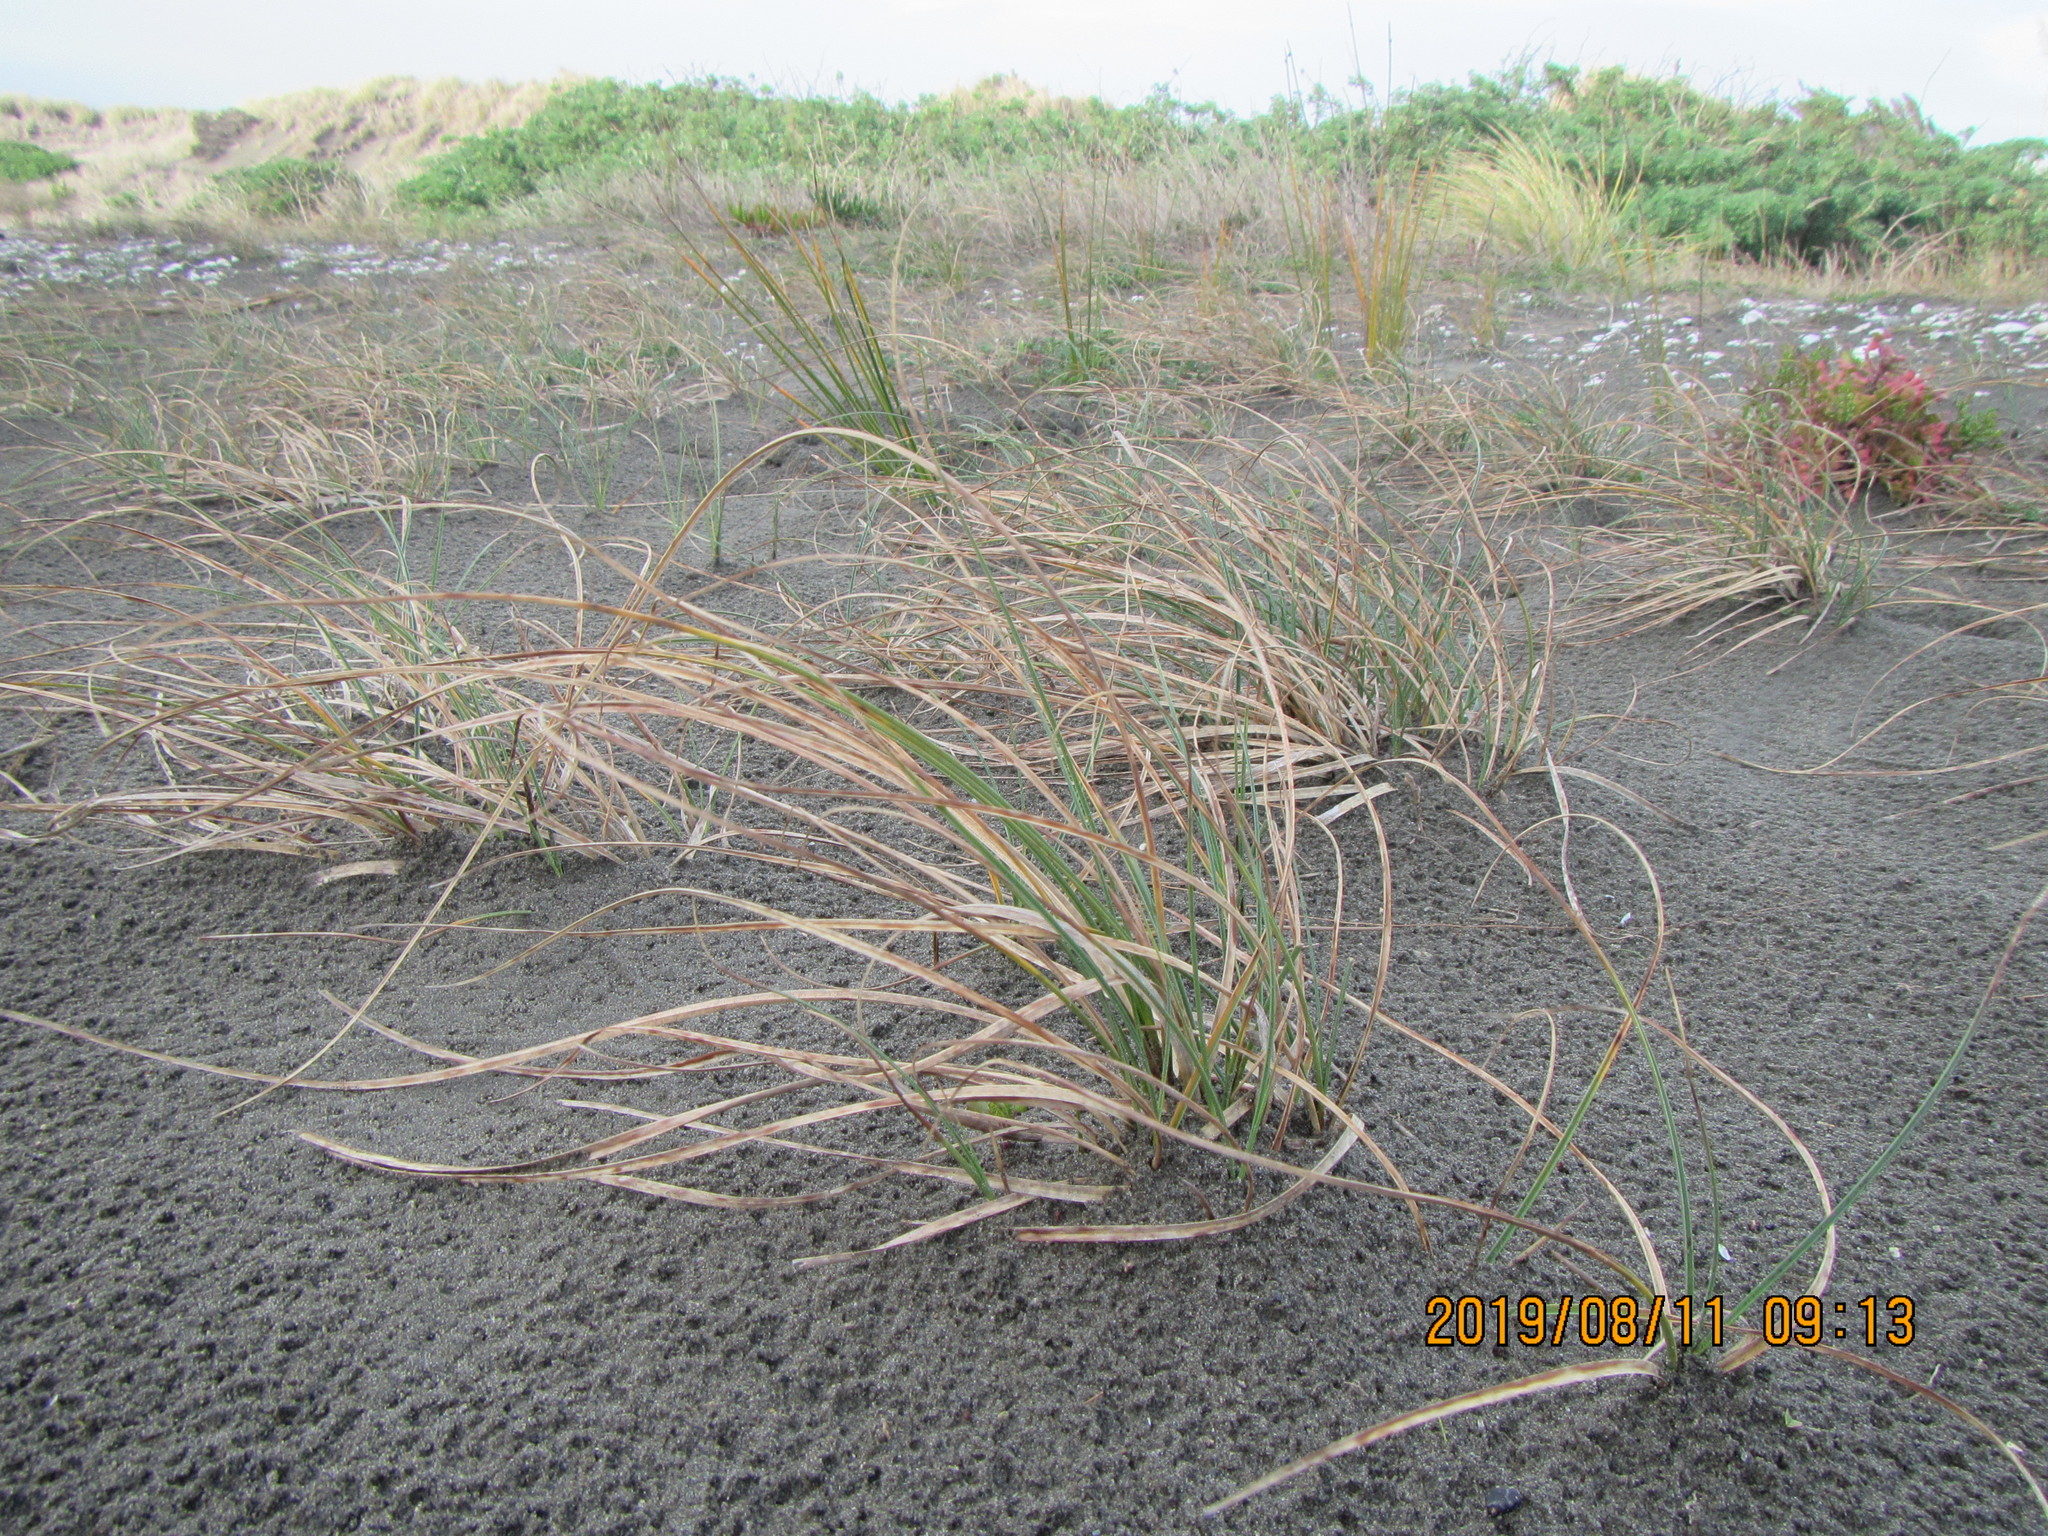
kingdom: Plantae
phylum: Tracheophyta
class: Liliopsida
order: Poales
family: Cyperaceae
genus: Carex
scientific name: Carex pumila
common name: Dwarf sedge
